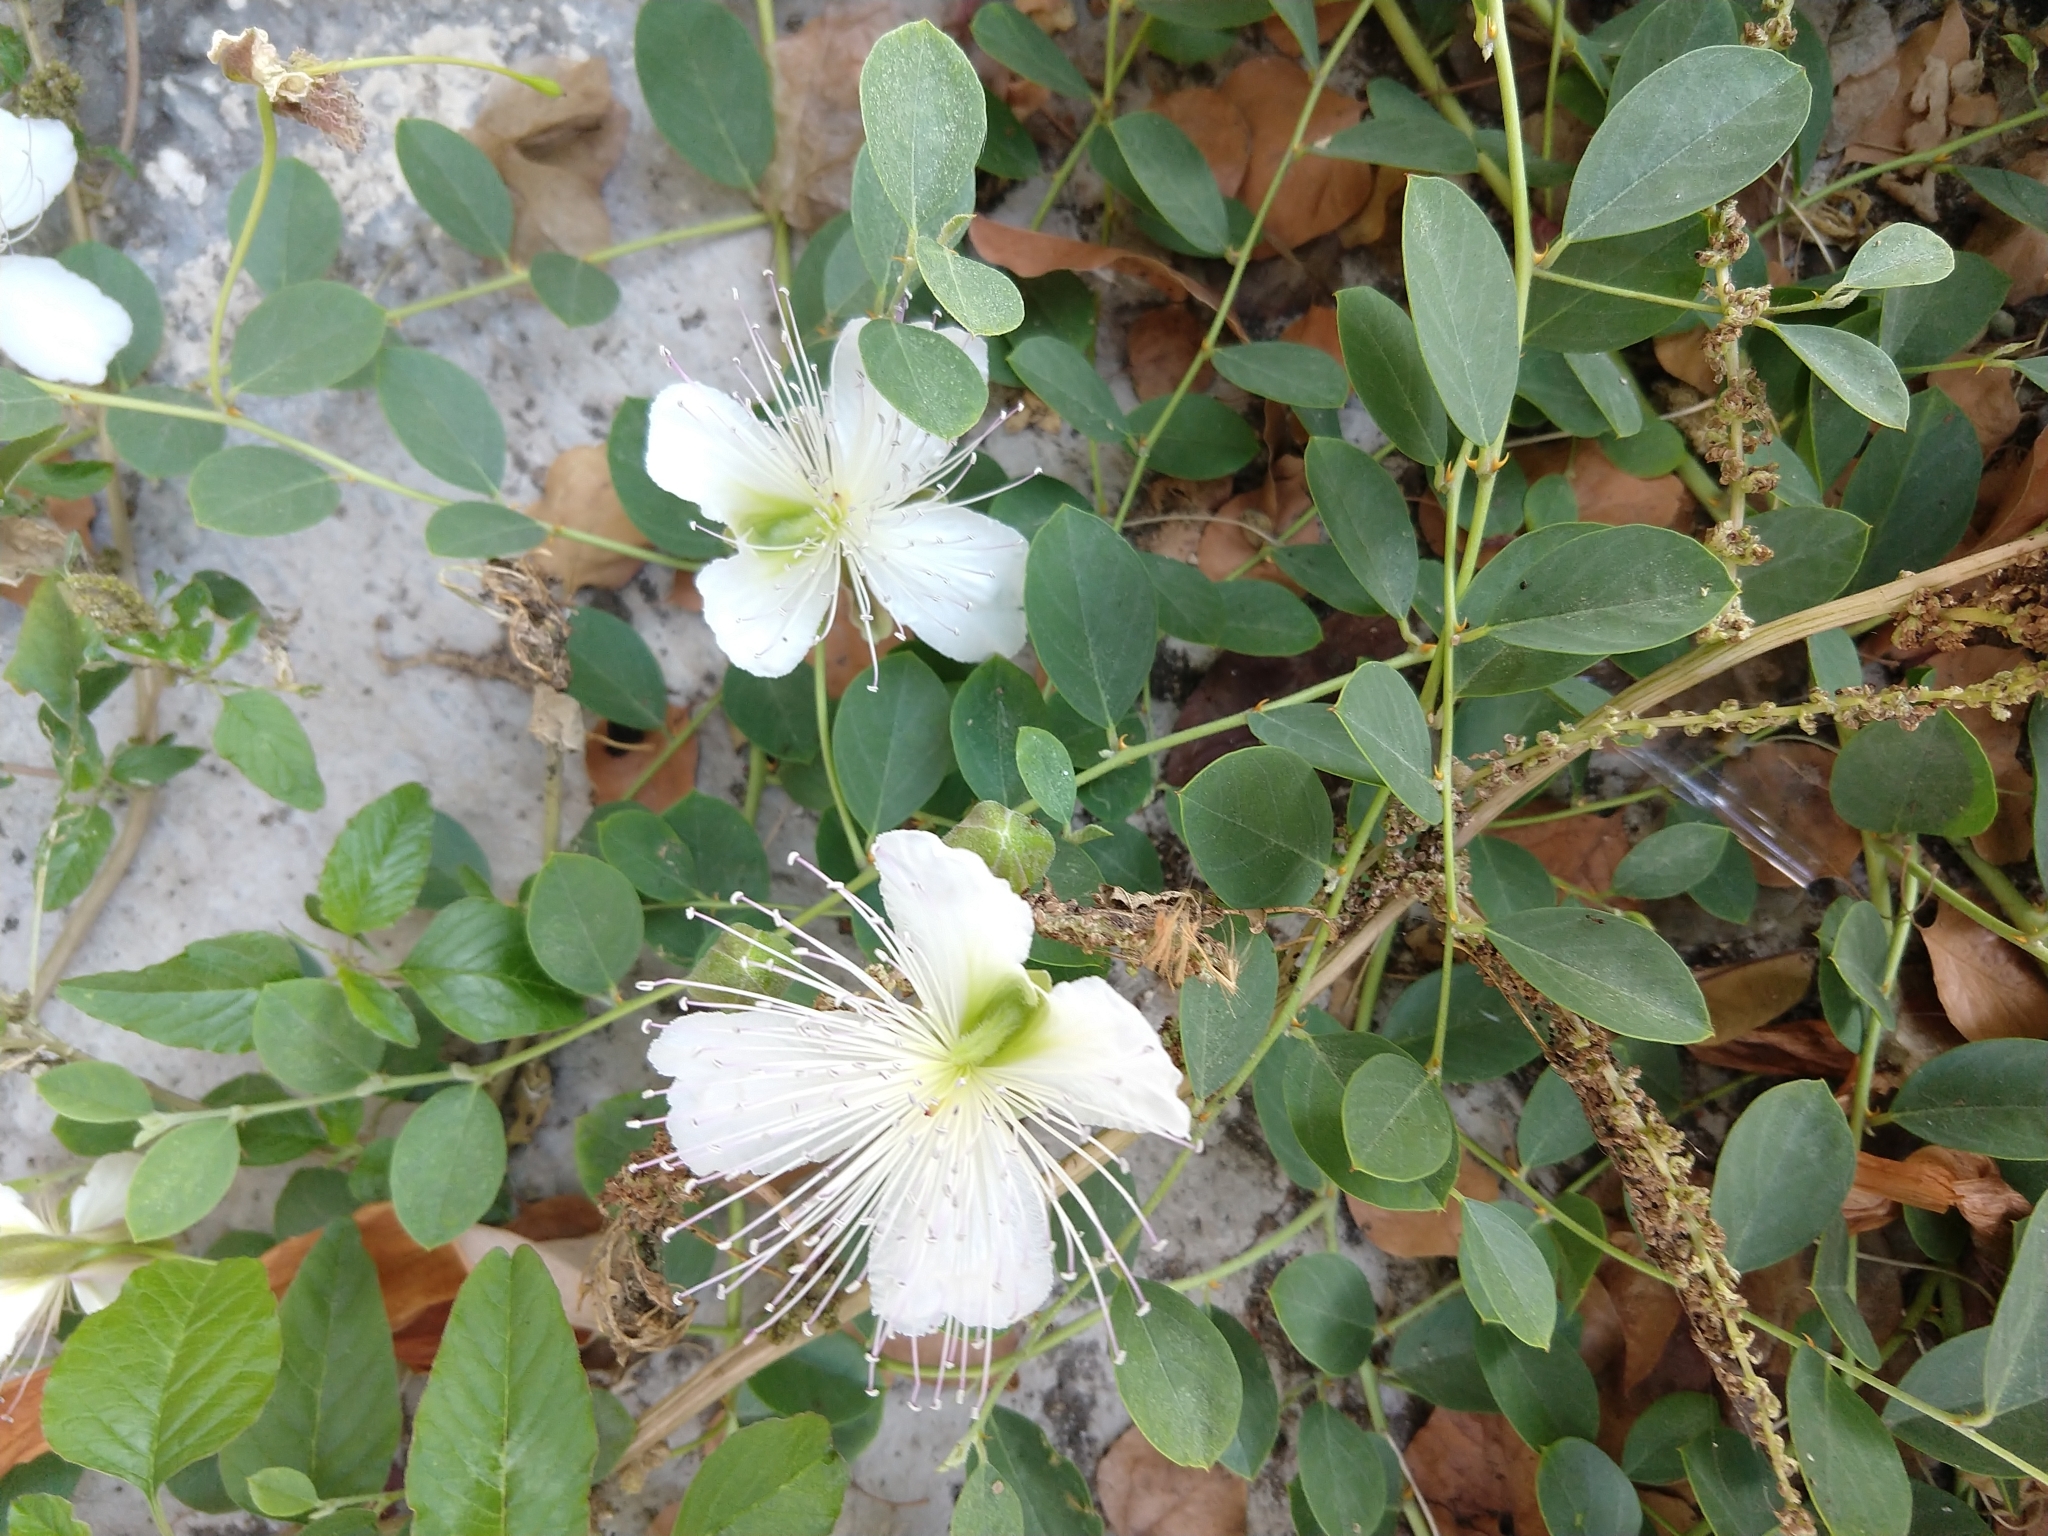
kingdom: Plantae
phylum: Tracheophyta
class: Magnoliopsida
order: Brassicales
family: Capparaceae
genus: Capparis
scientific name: Capparis spinosa
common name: Caper
